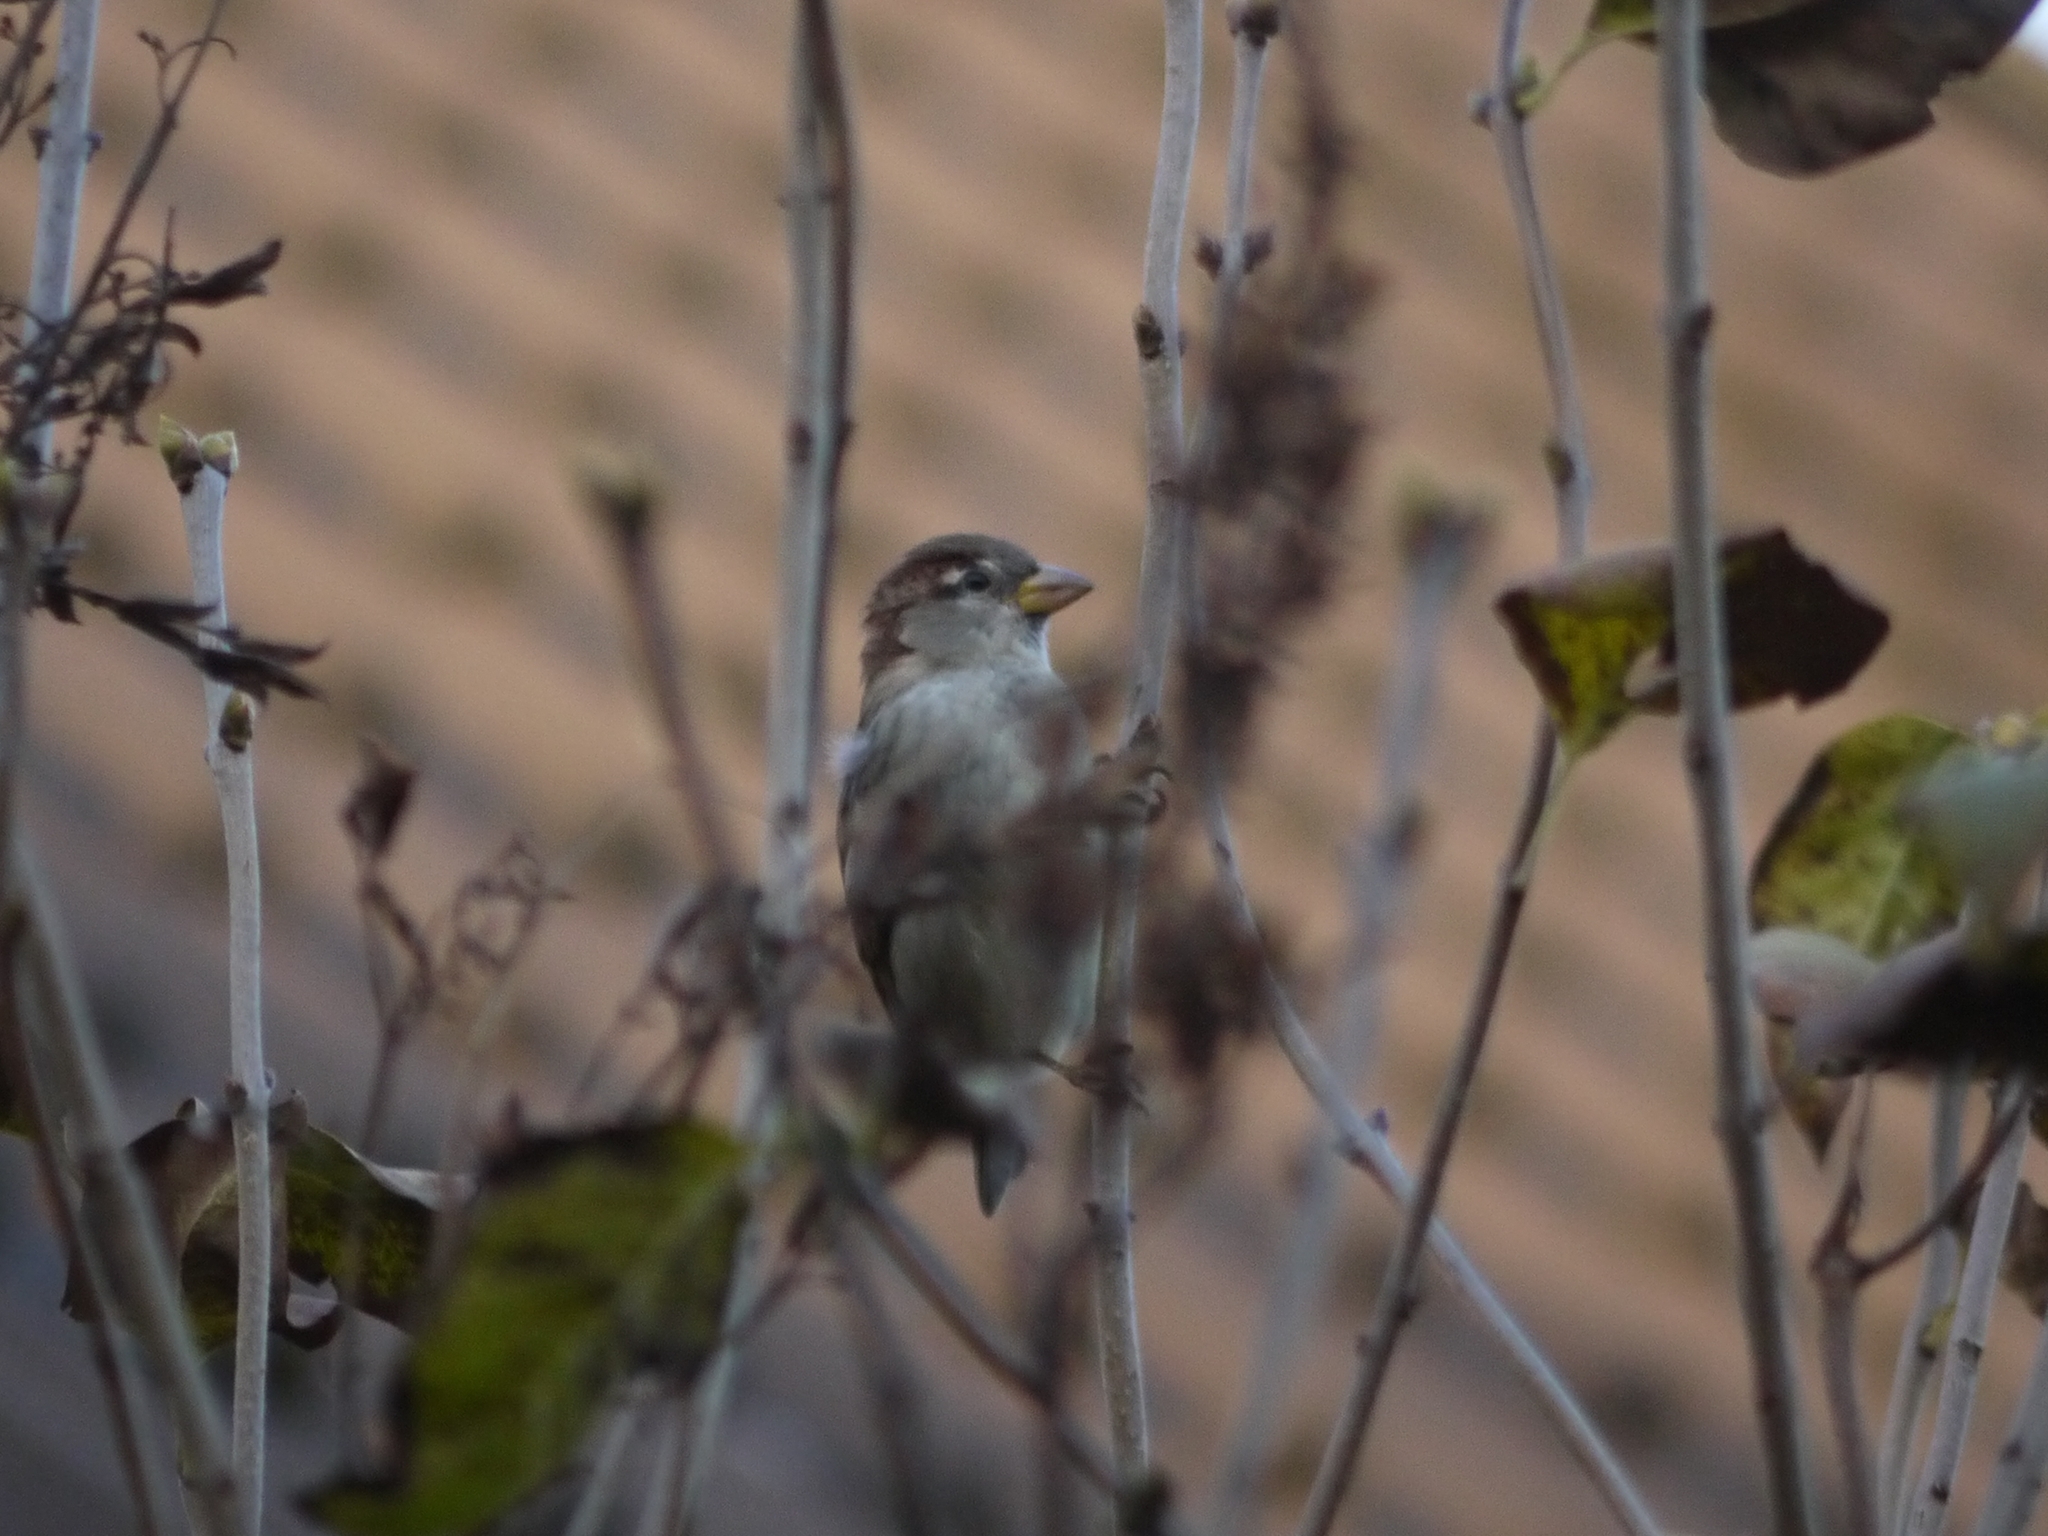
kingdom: Animalia
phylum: Chordata
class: Aves
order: Passeriformes
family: Passeridae
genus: Passer
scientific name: Passer domesticus
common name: House sparrow
